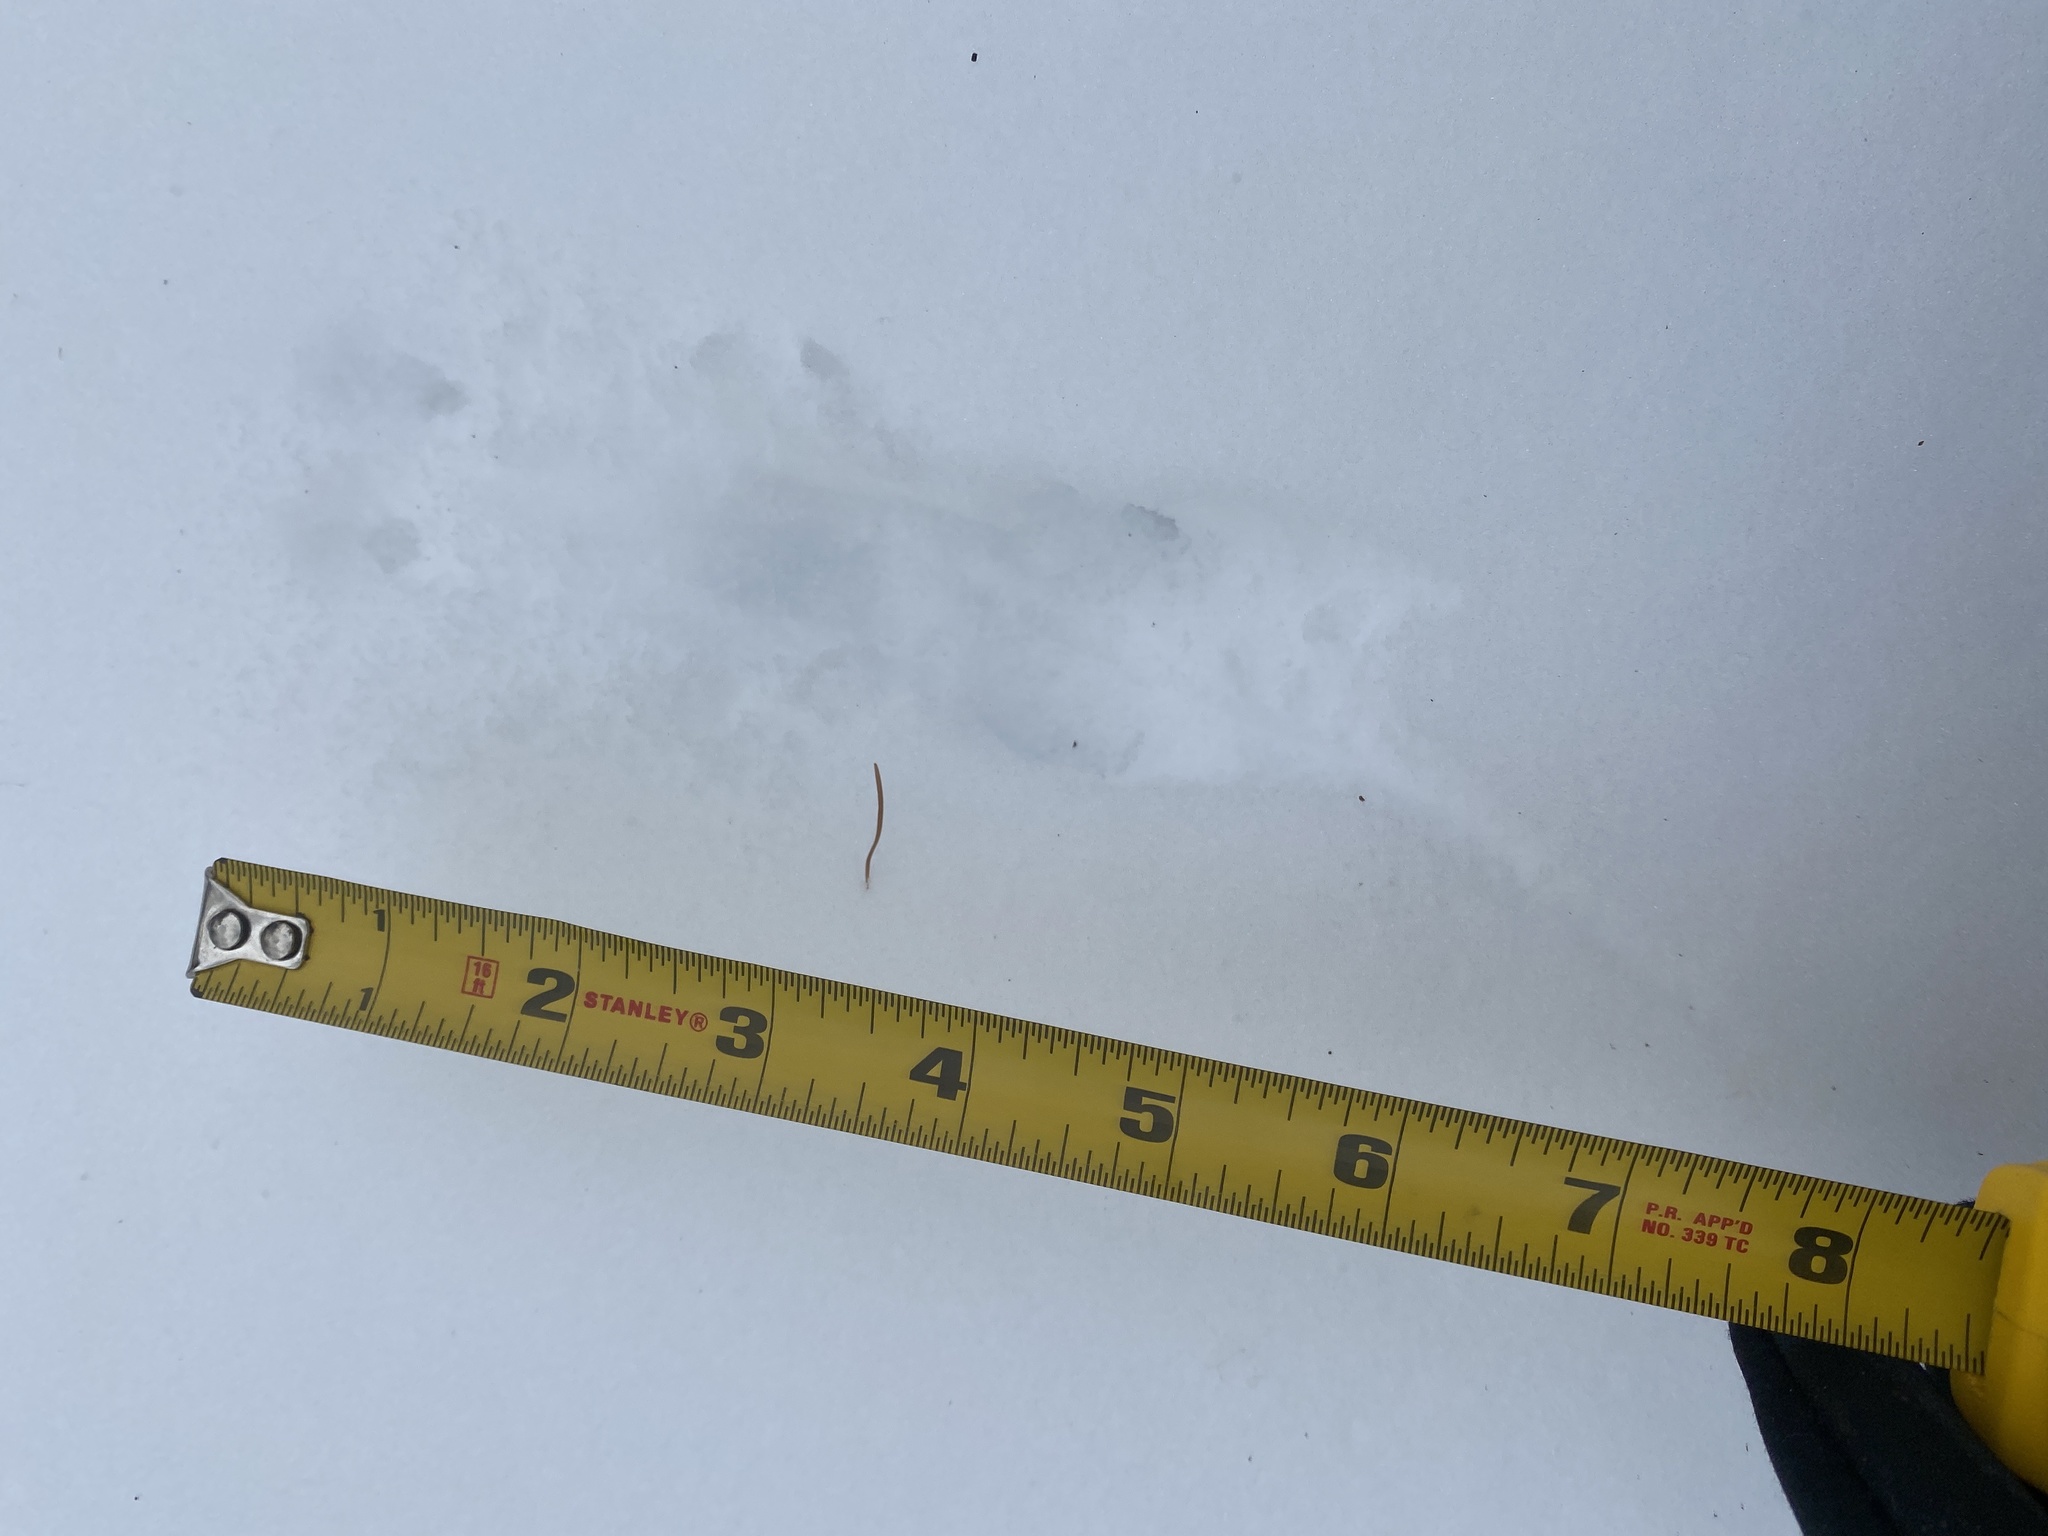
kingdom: Animalia
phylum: Chordata
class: Mammalia
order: Rodentia
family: Cricetidae
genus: Peromyscus
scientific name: Peromyscus leucopus
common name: White-footed deermouse
